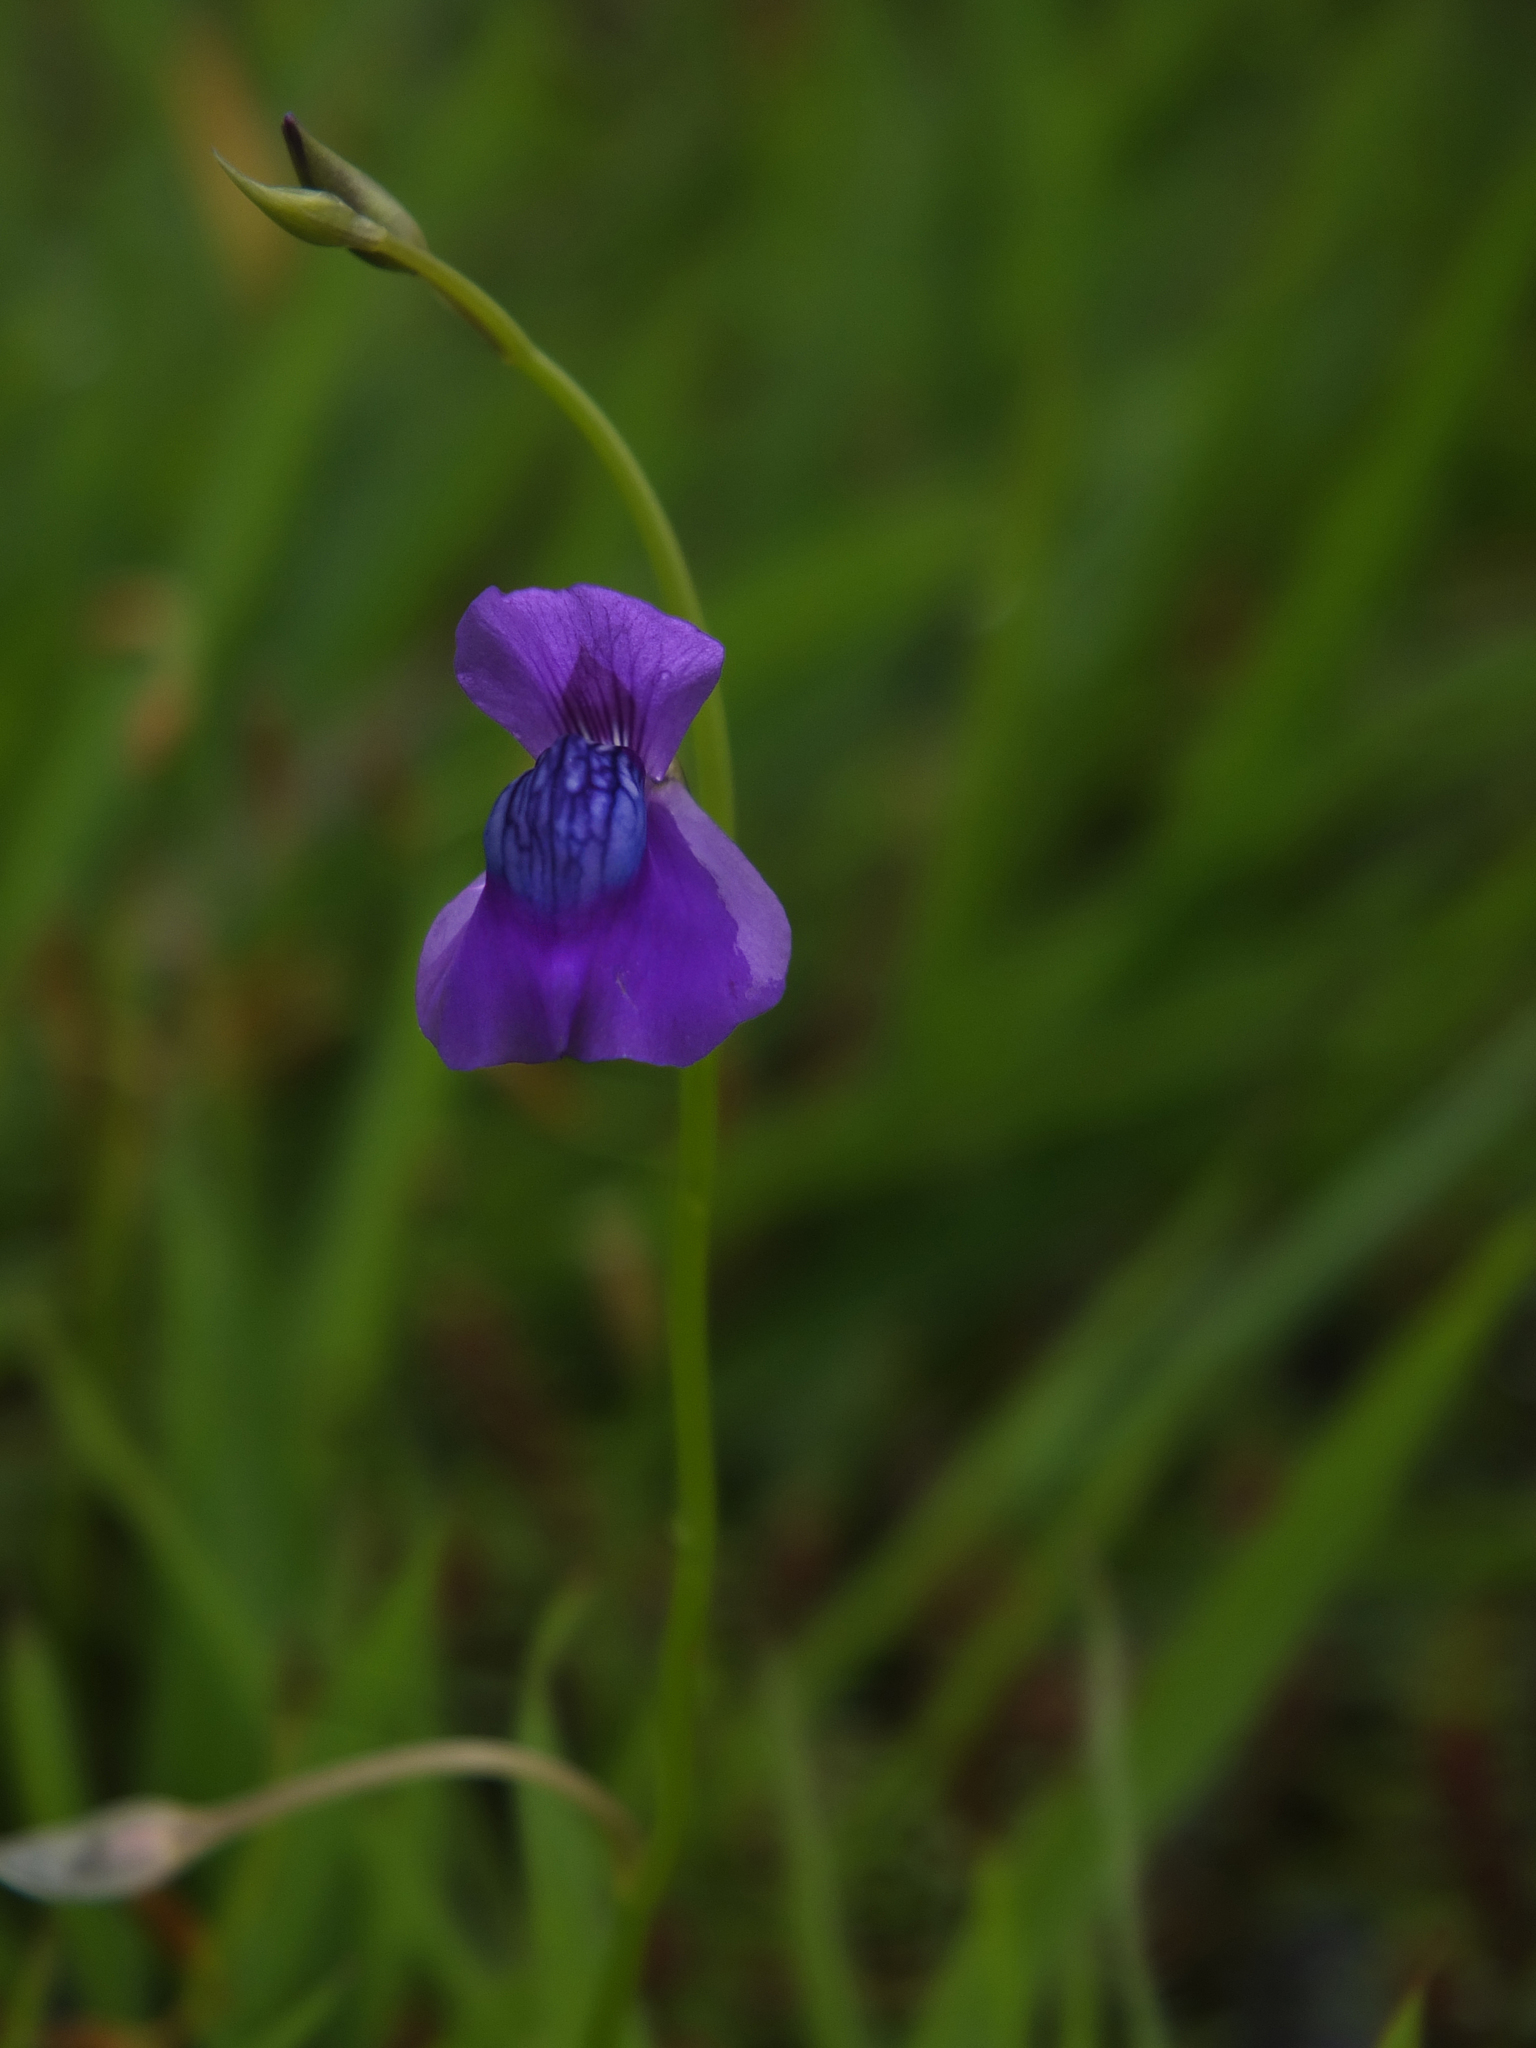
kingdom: Plantae
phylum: Tracheophyta
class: Magnoliopsida
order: Lamiales
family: Lentibulariaceae
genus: Utricularia
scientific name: Utricularia reticulata
